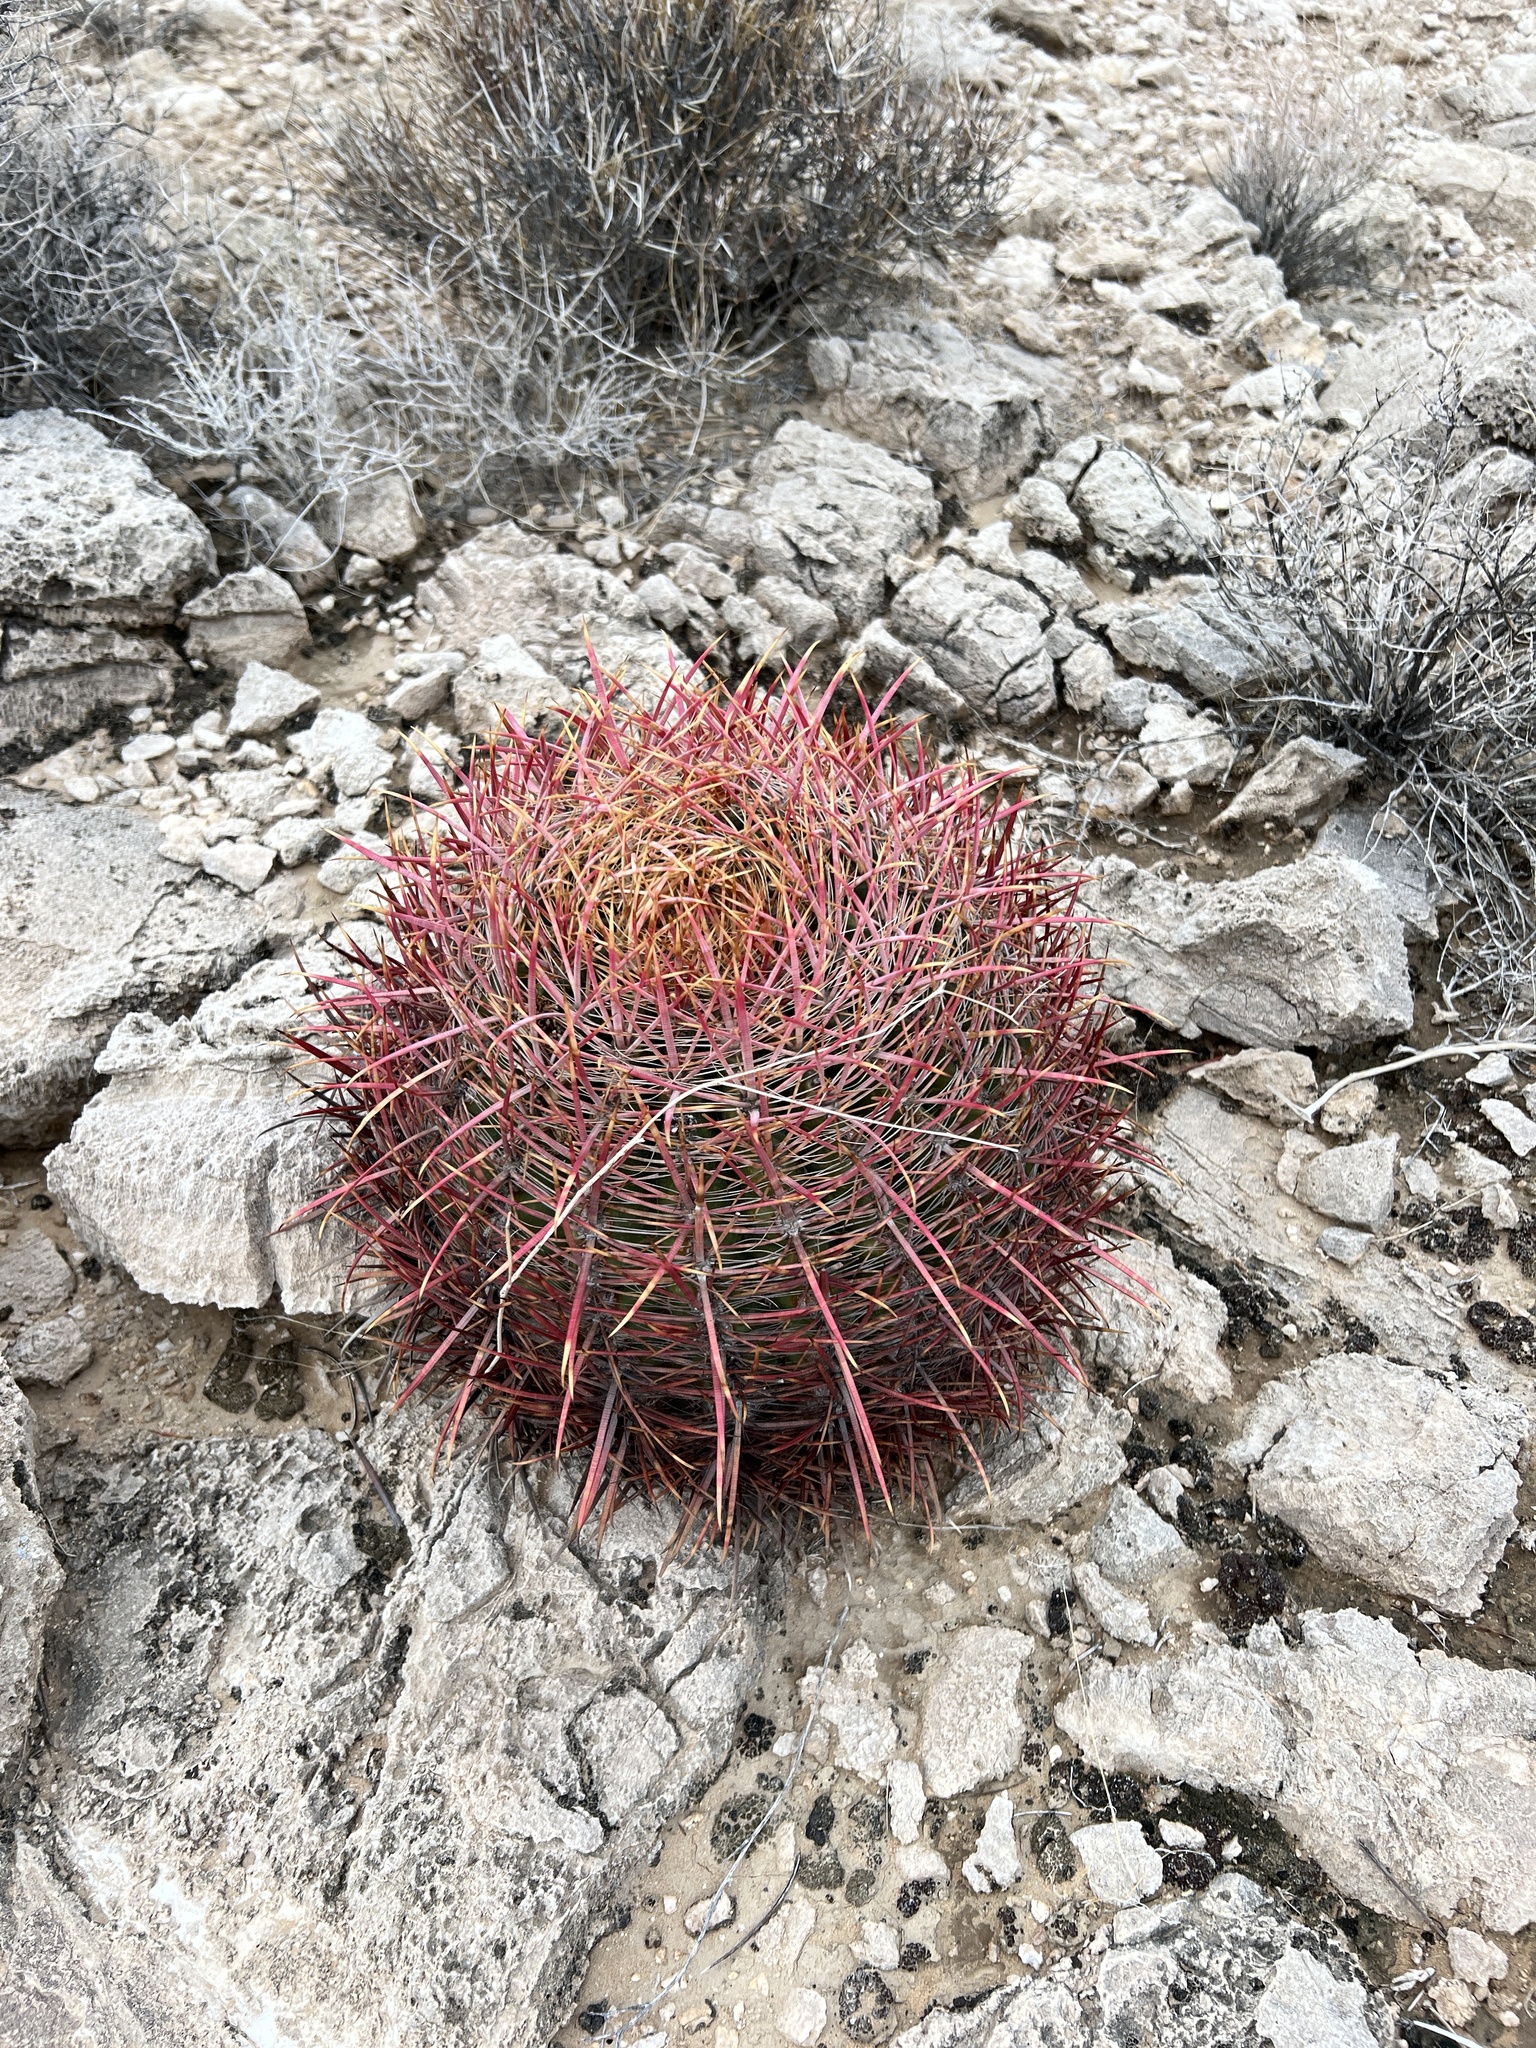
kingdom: Plantae
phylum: Tracheophyta
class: Magnoliopsida
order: Caryophyllales
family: Cactaceae
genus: Ferocactus
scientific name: Ferocactus cylindraceus
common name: California barrel cactus
